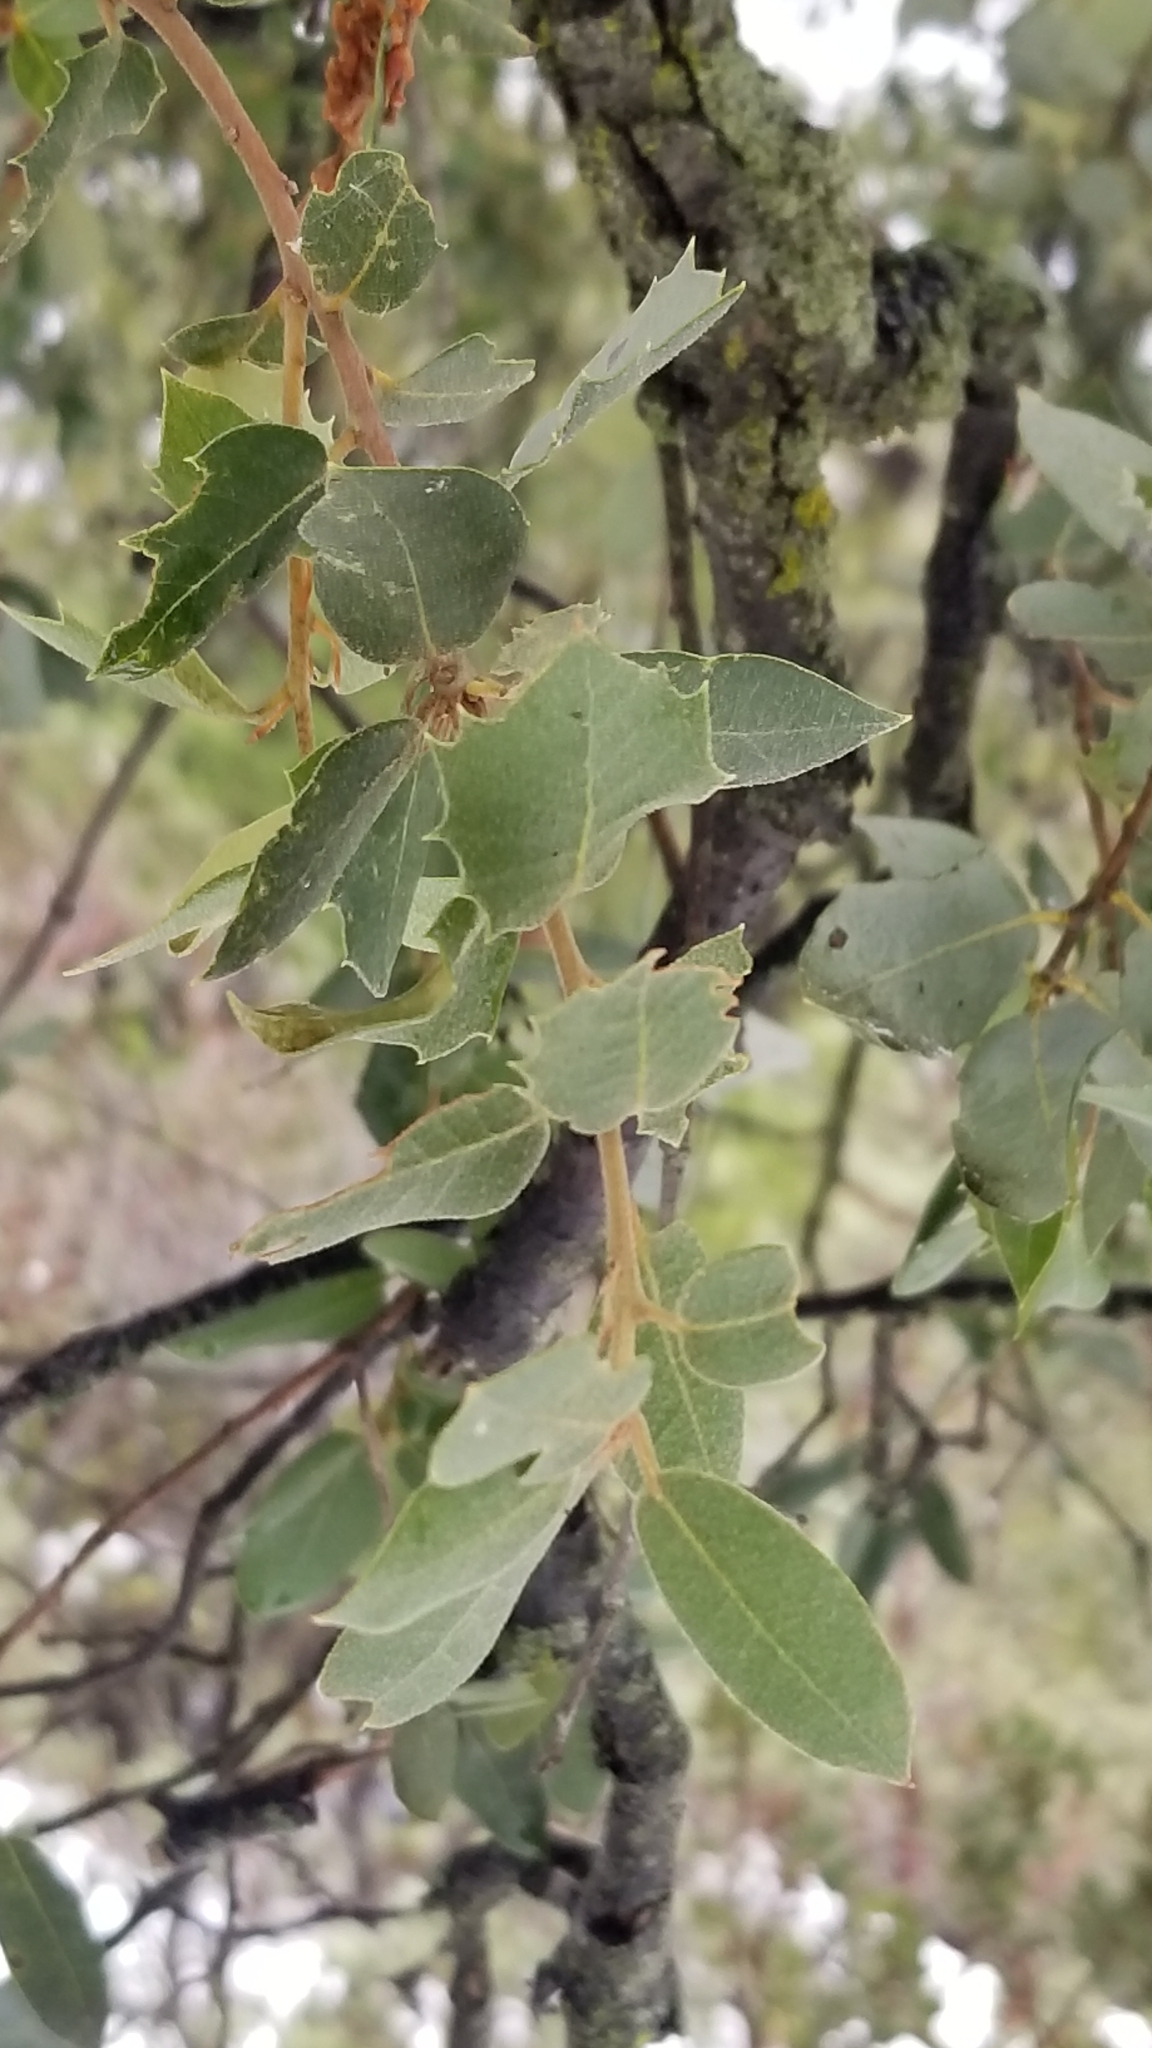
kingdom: Plantae
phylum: Tracheophyta
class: Magnoliopsida
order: Fagales
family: Fagaceae
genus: Quercus
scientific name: Quercus chrysolepis
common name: Canyon live oak
